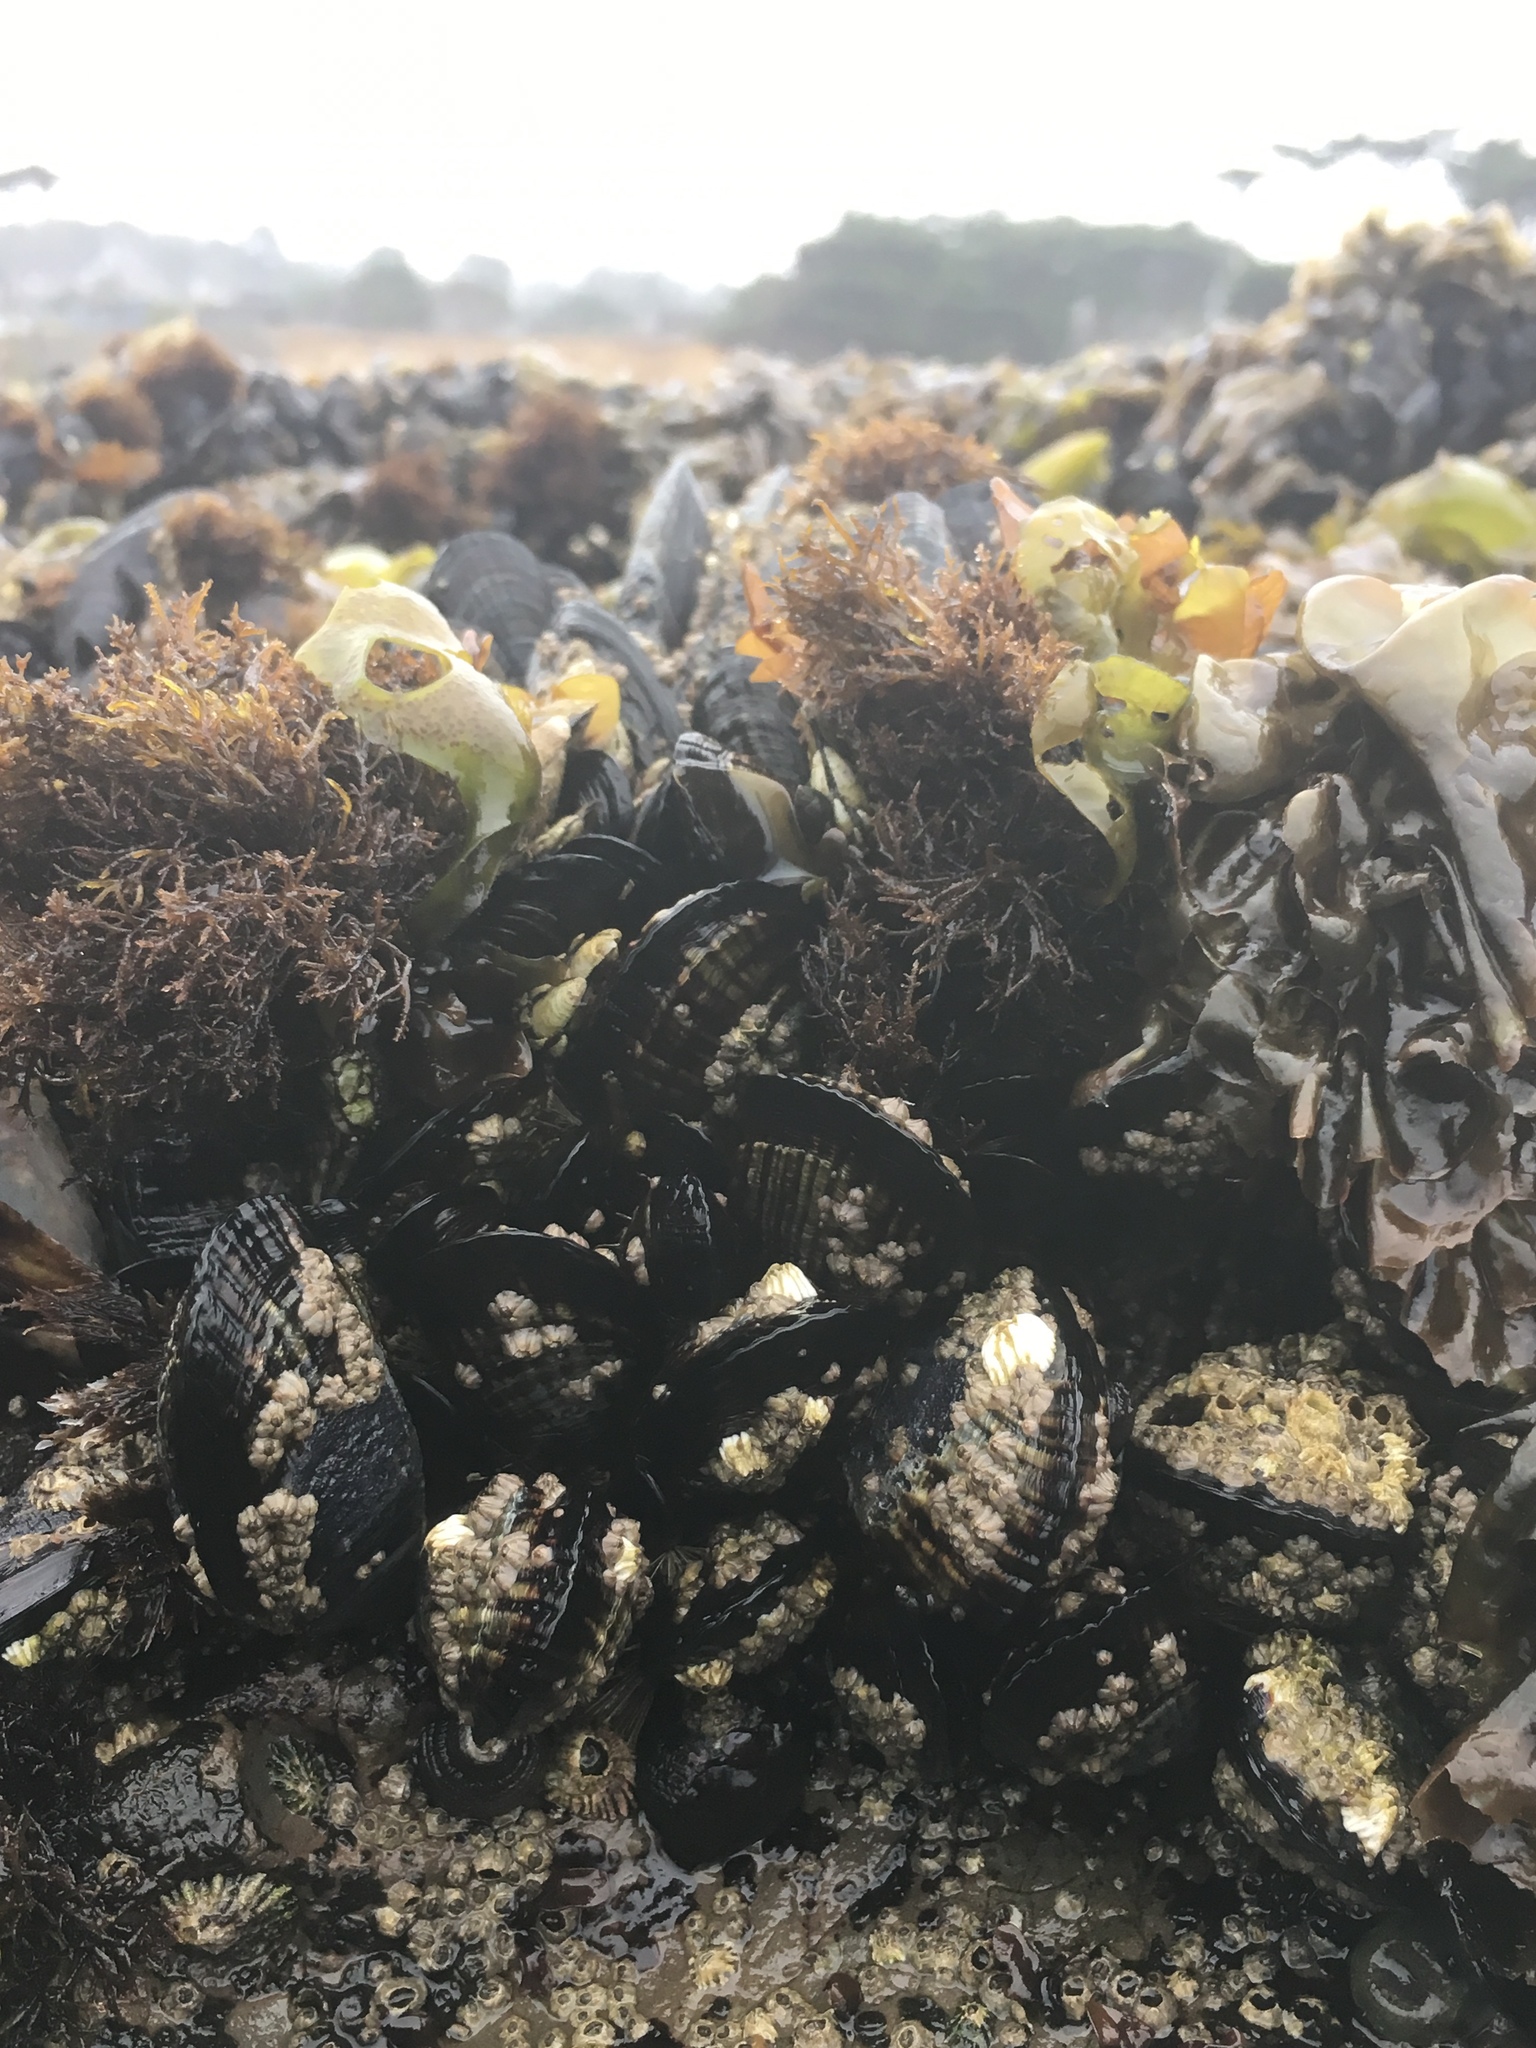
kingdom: Animalia
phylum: Mollusca
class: Bivalvia
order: Mytilida
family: Mytilidae
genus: Mytilus
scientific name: Mytilus californianus
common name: California mussel
